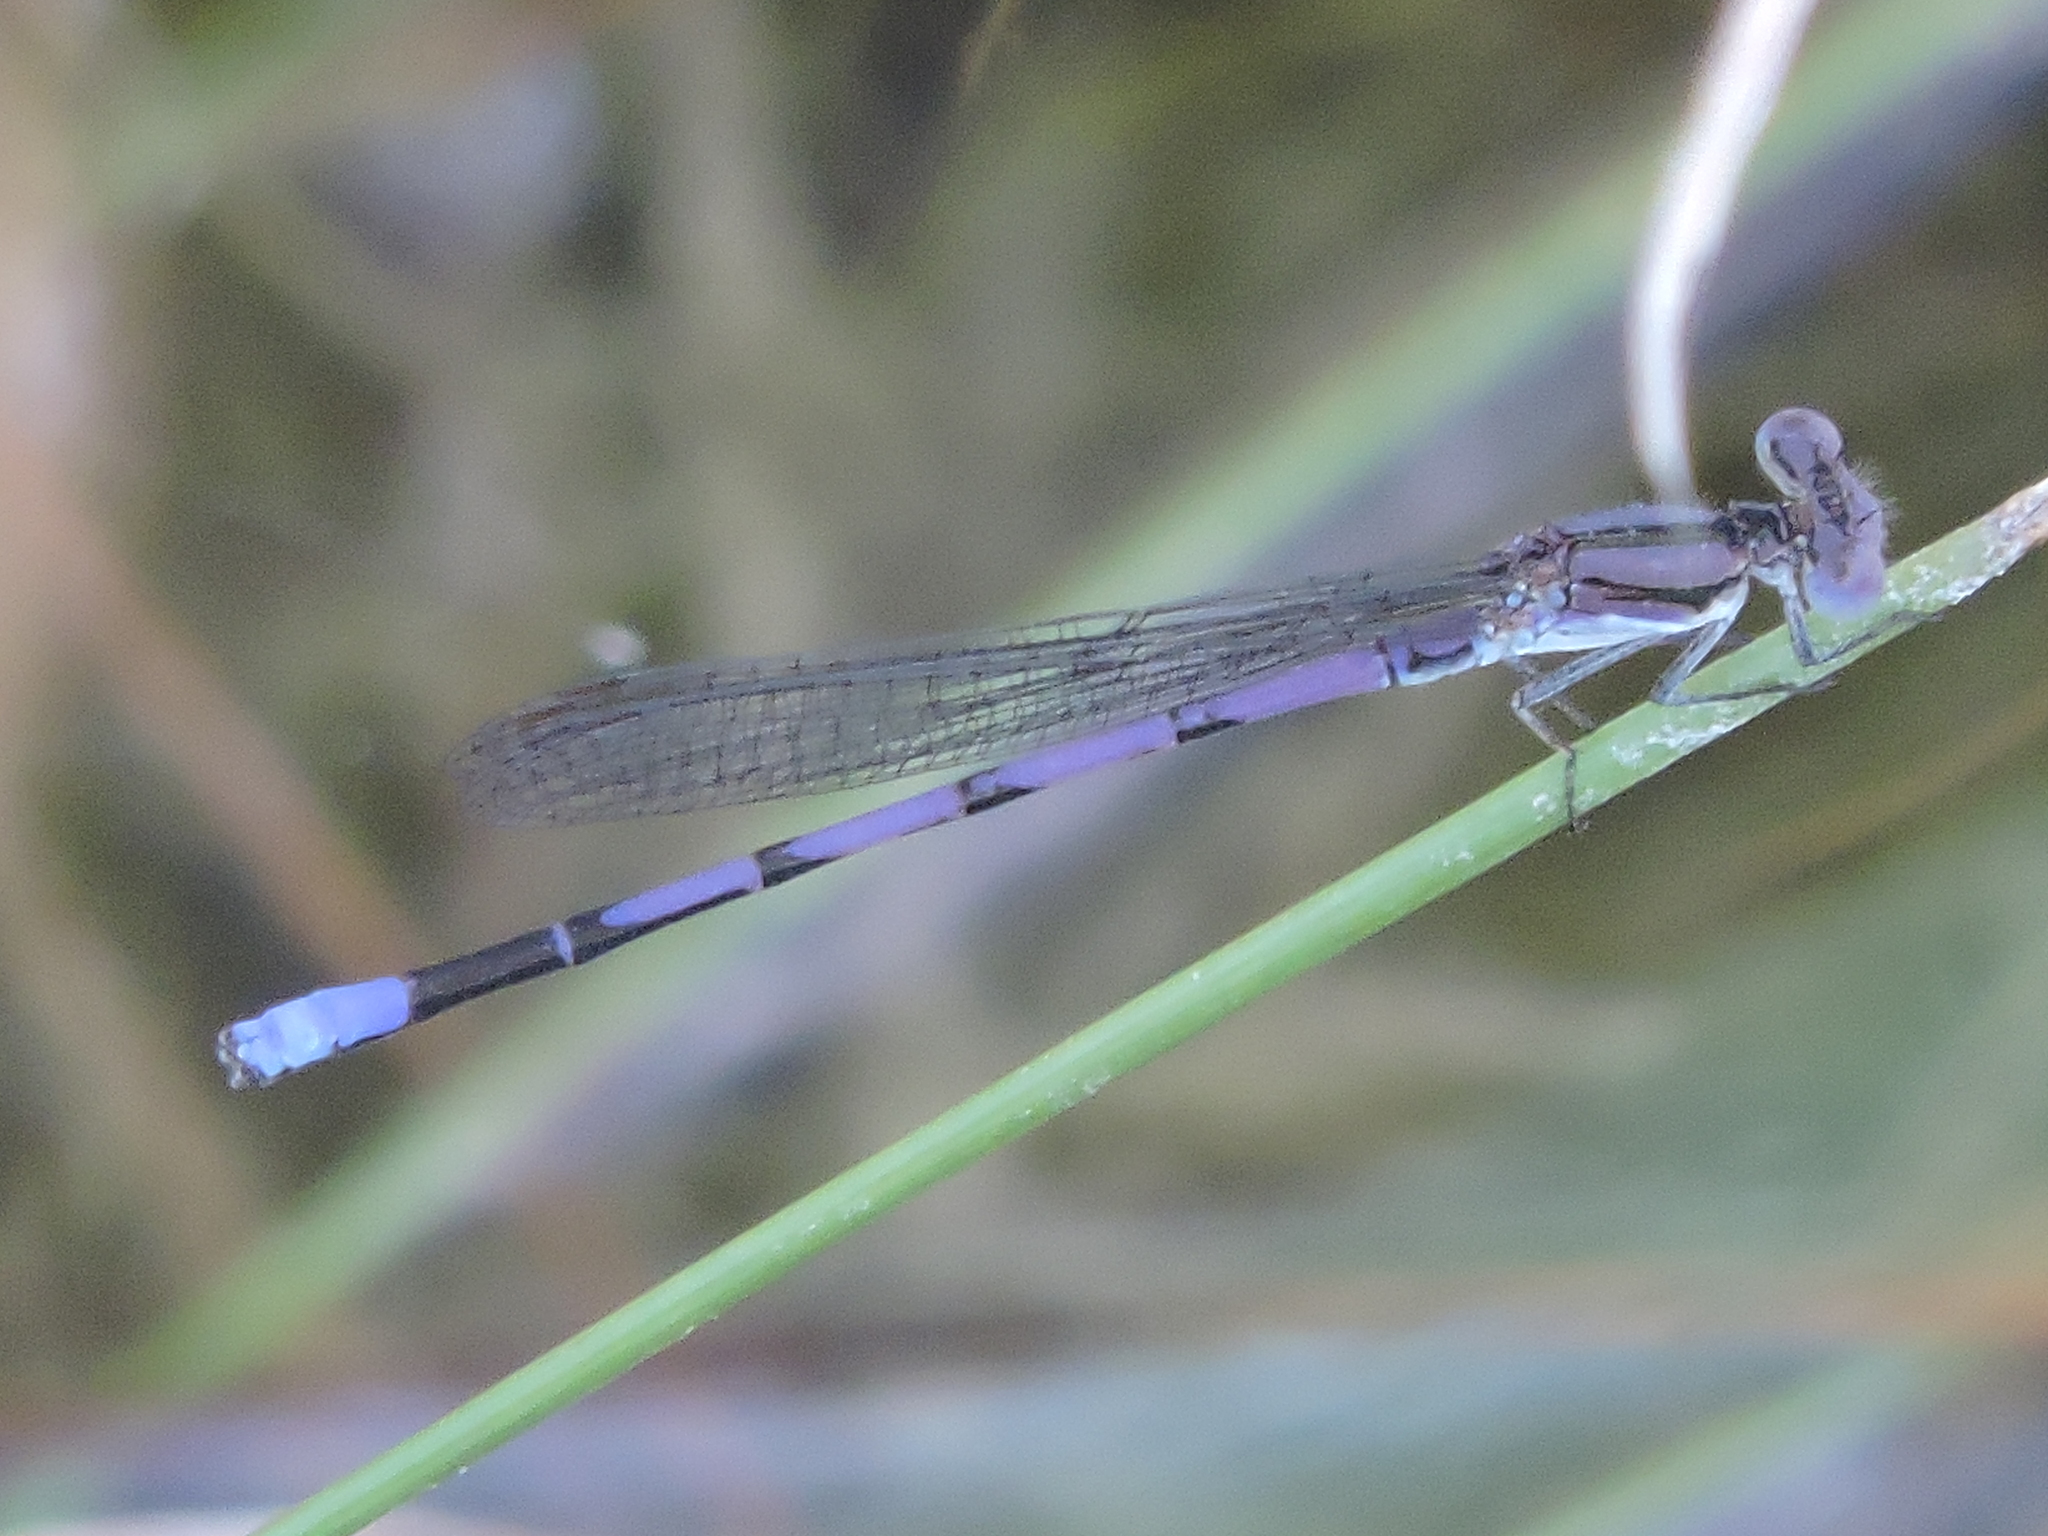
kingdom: Animalia
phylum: Arthropoda
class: Insecta
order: Odonata
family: Coenagrionidae
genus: Argia
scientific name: Argia fumipennis
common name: Variable dancer
